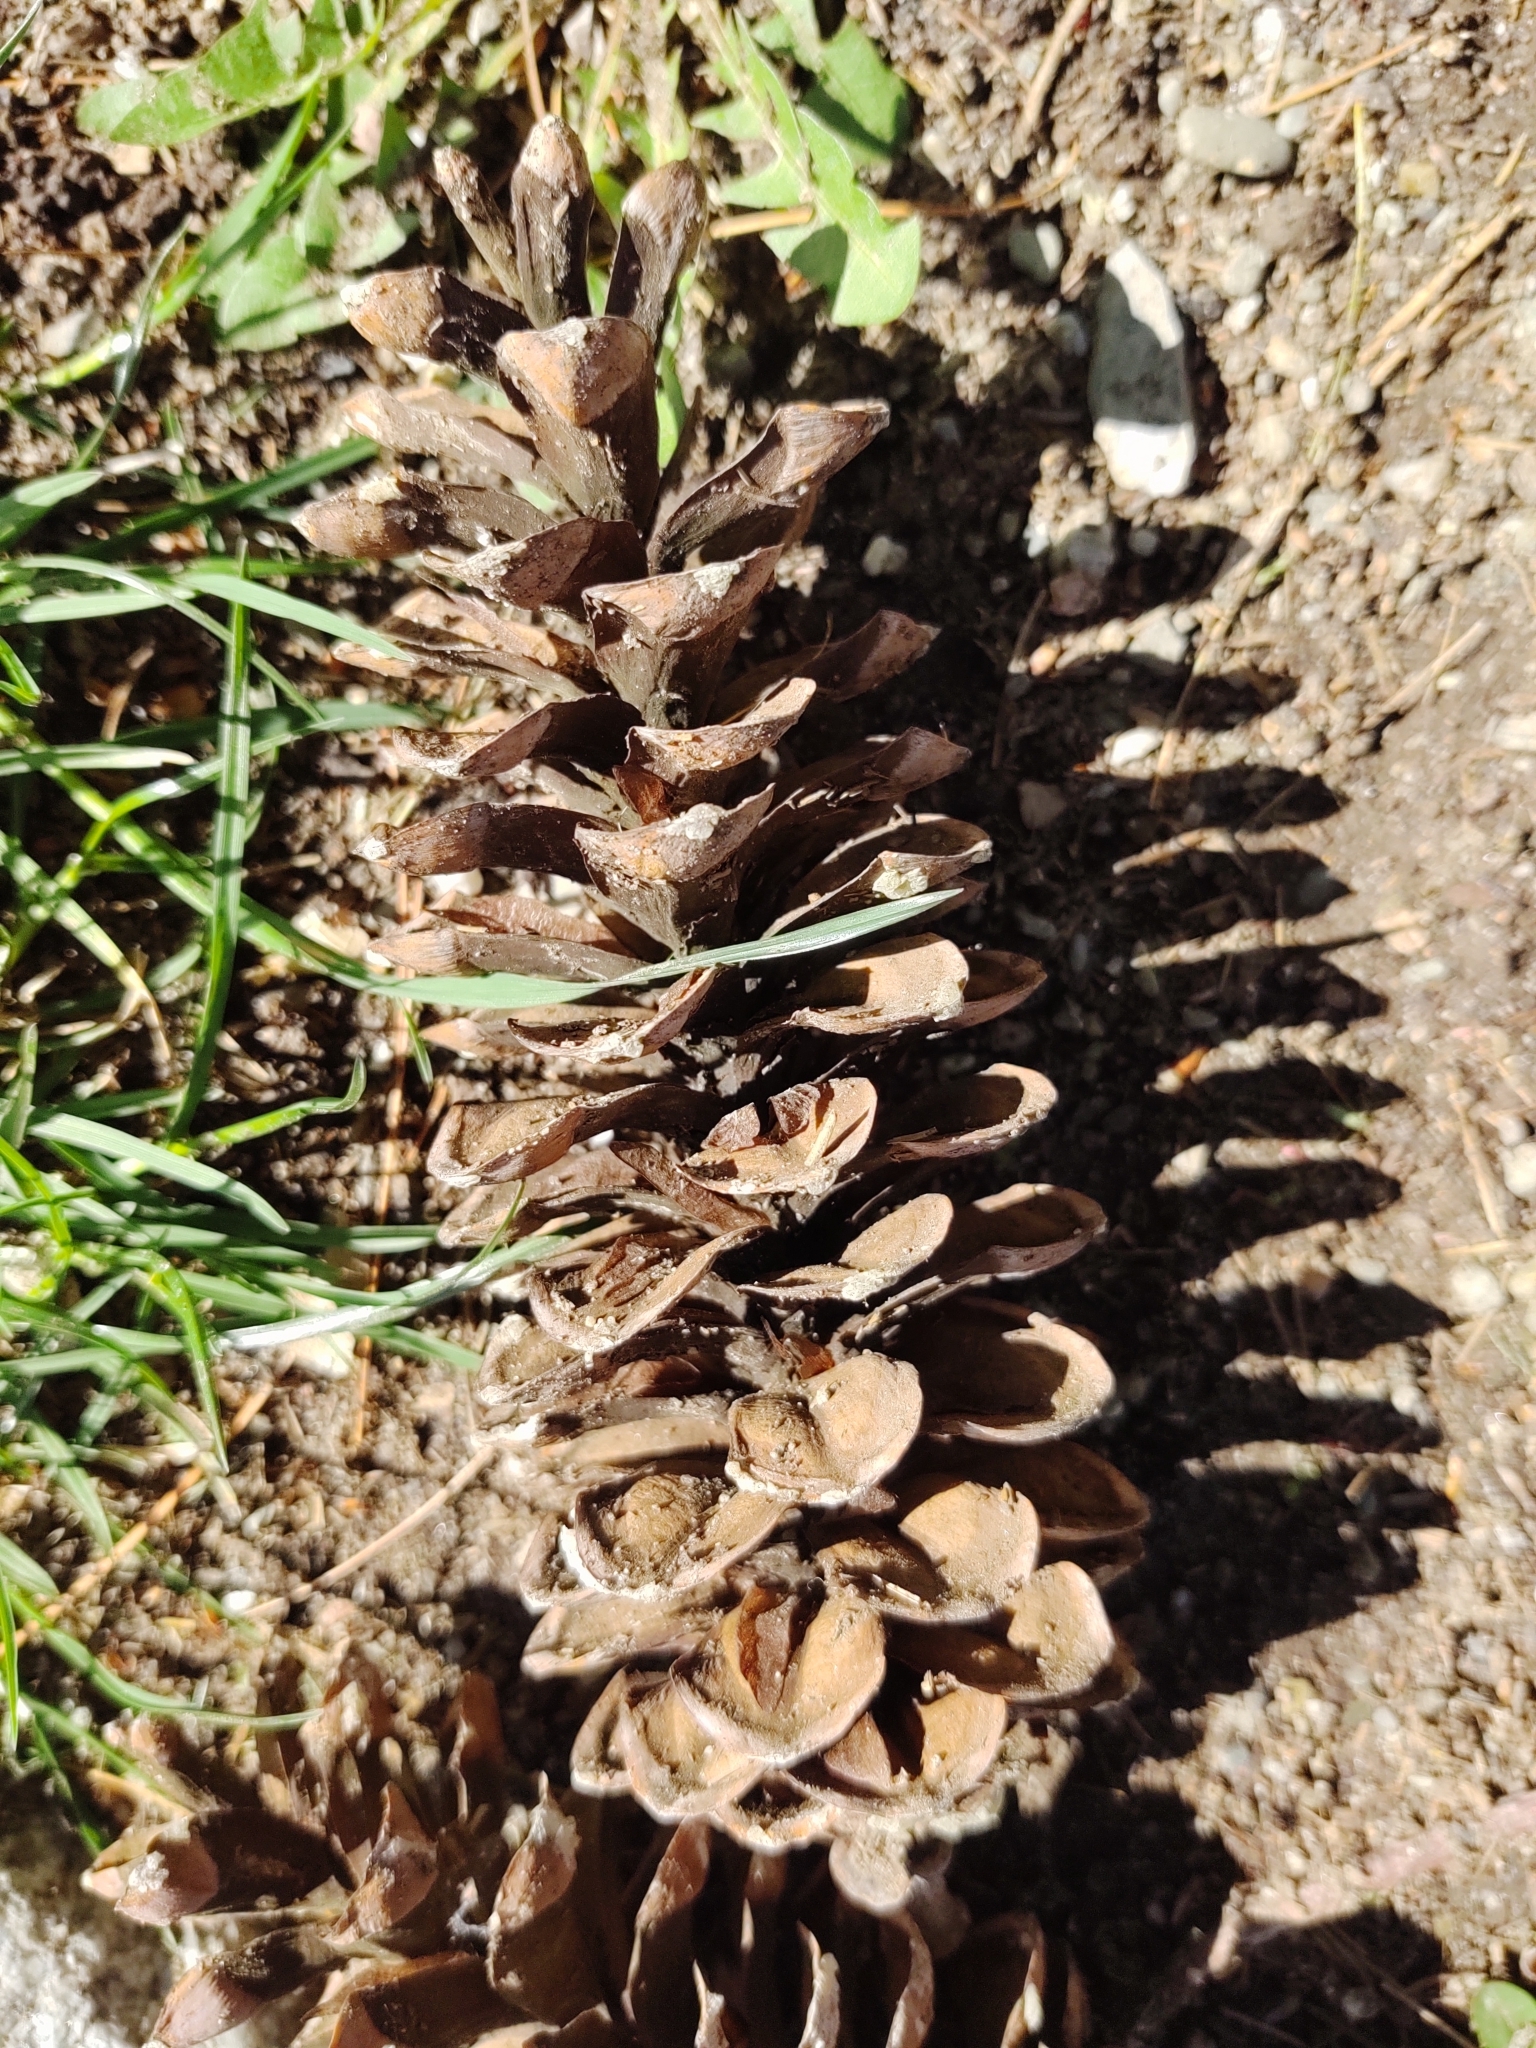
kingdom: Plantae
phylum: Tracheophyta
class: Pinopsida
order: Pinales
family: Pinaceae
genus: Pinus
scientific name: Pinus strobus
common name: Weymouth pine
